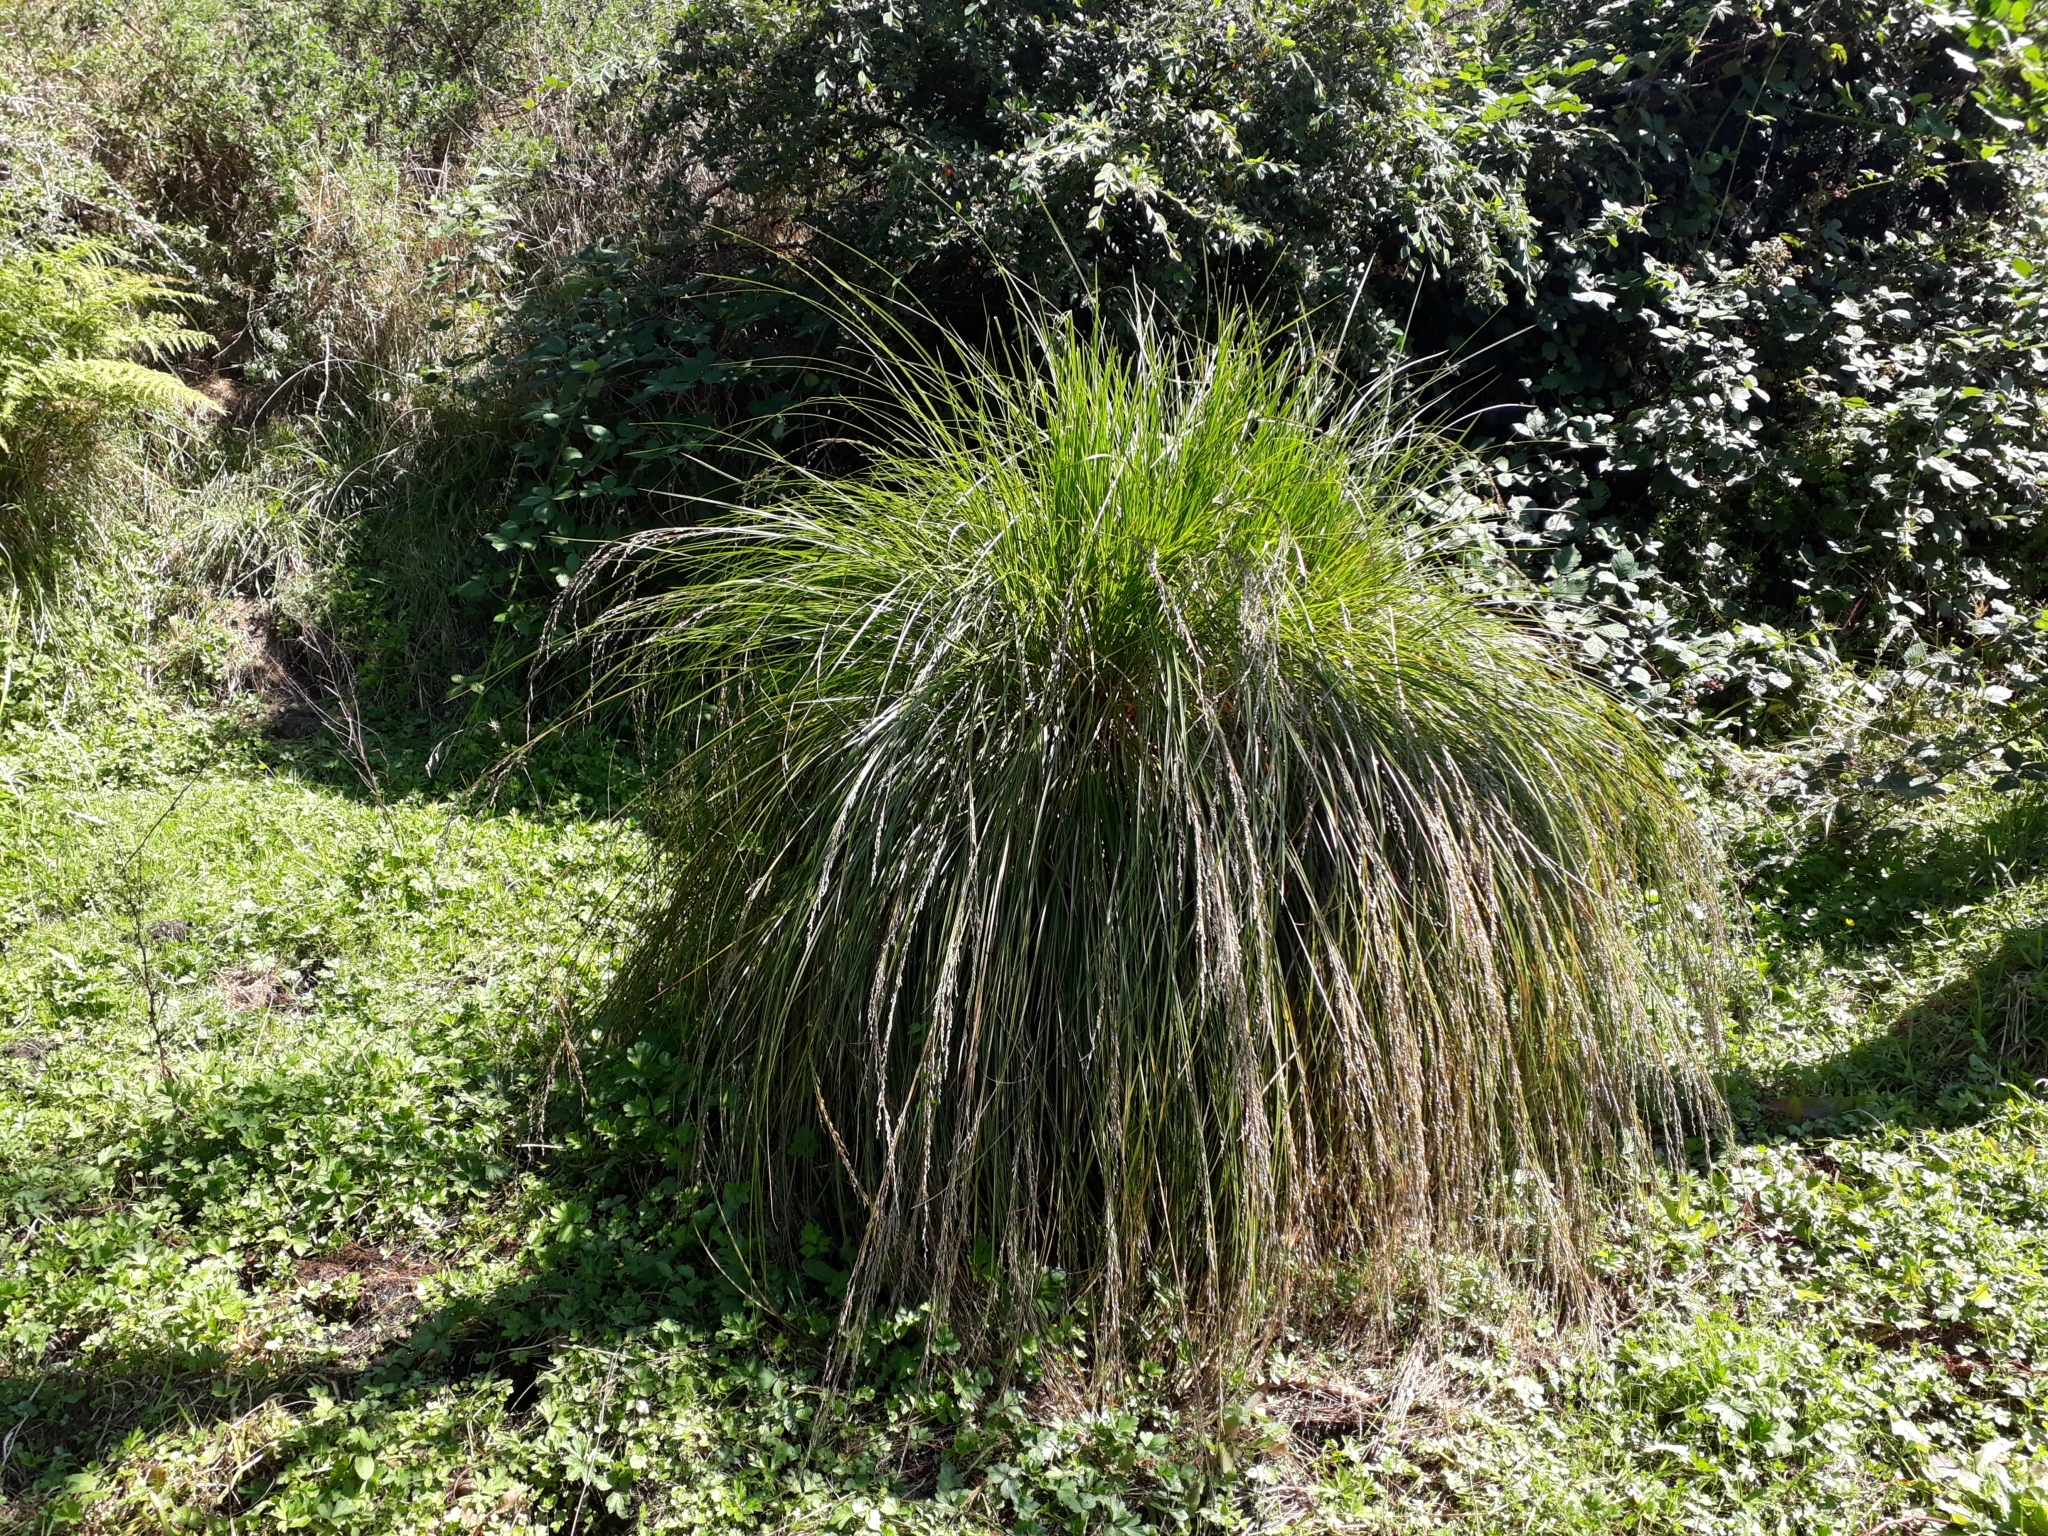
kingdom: Plantae
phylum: Tracheophyta
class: Liliopsida
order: Poales
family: Cyperaceae
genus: Carex
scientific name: Carex secta
